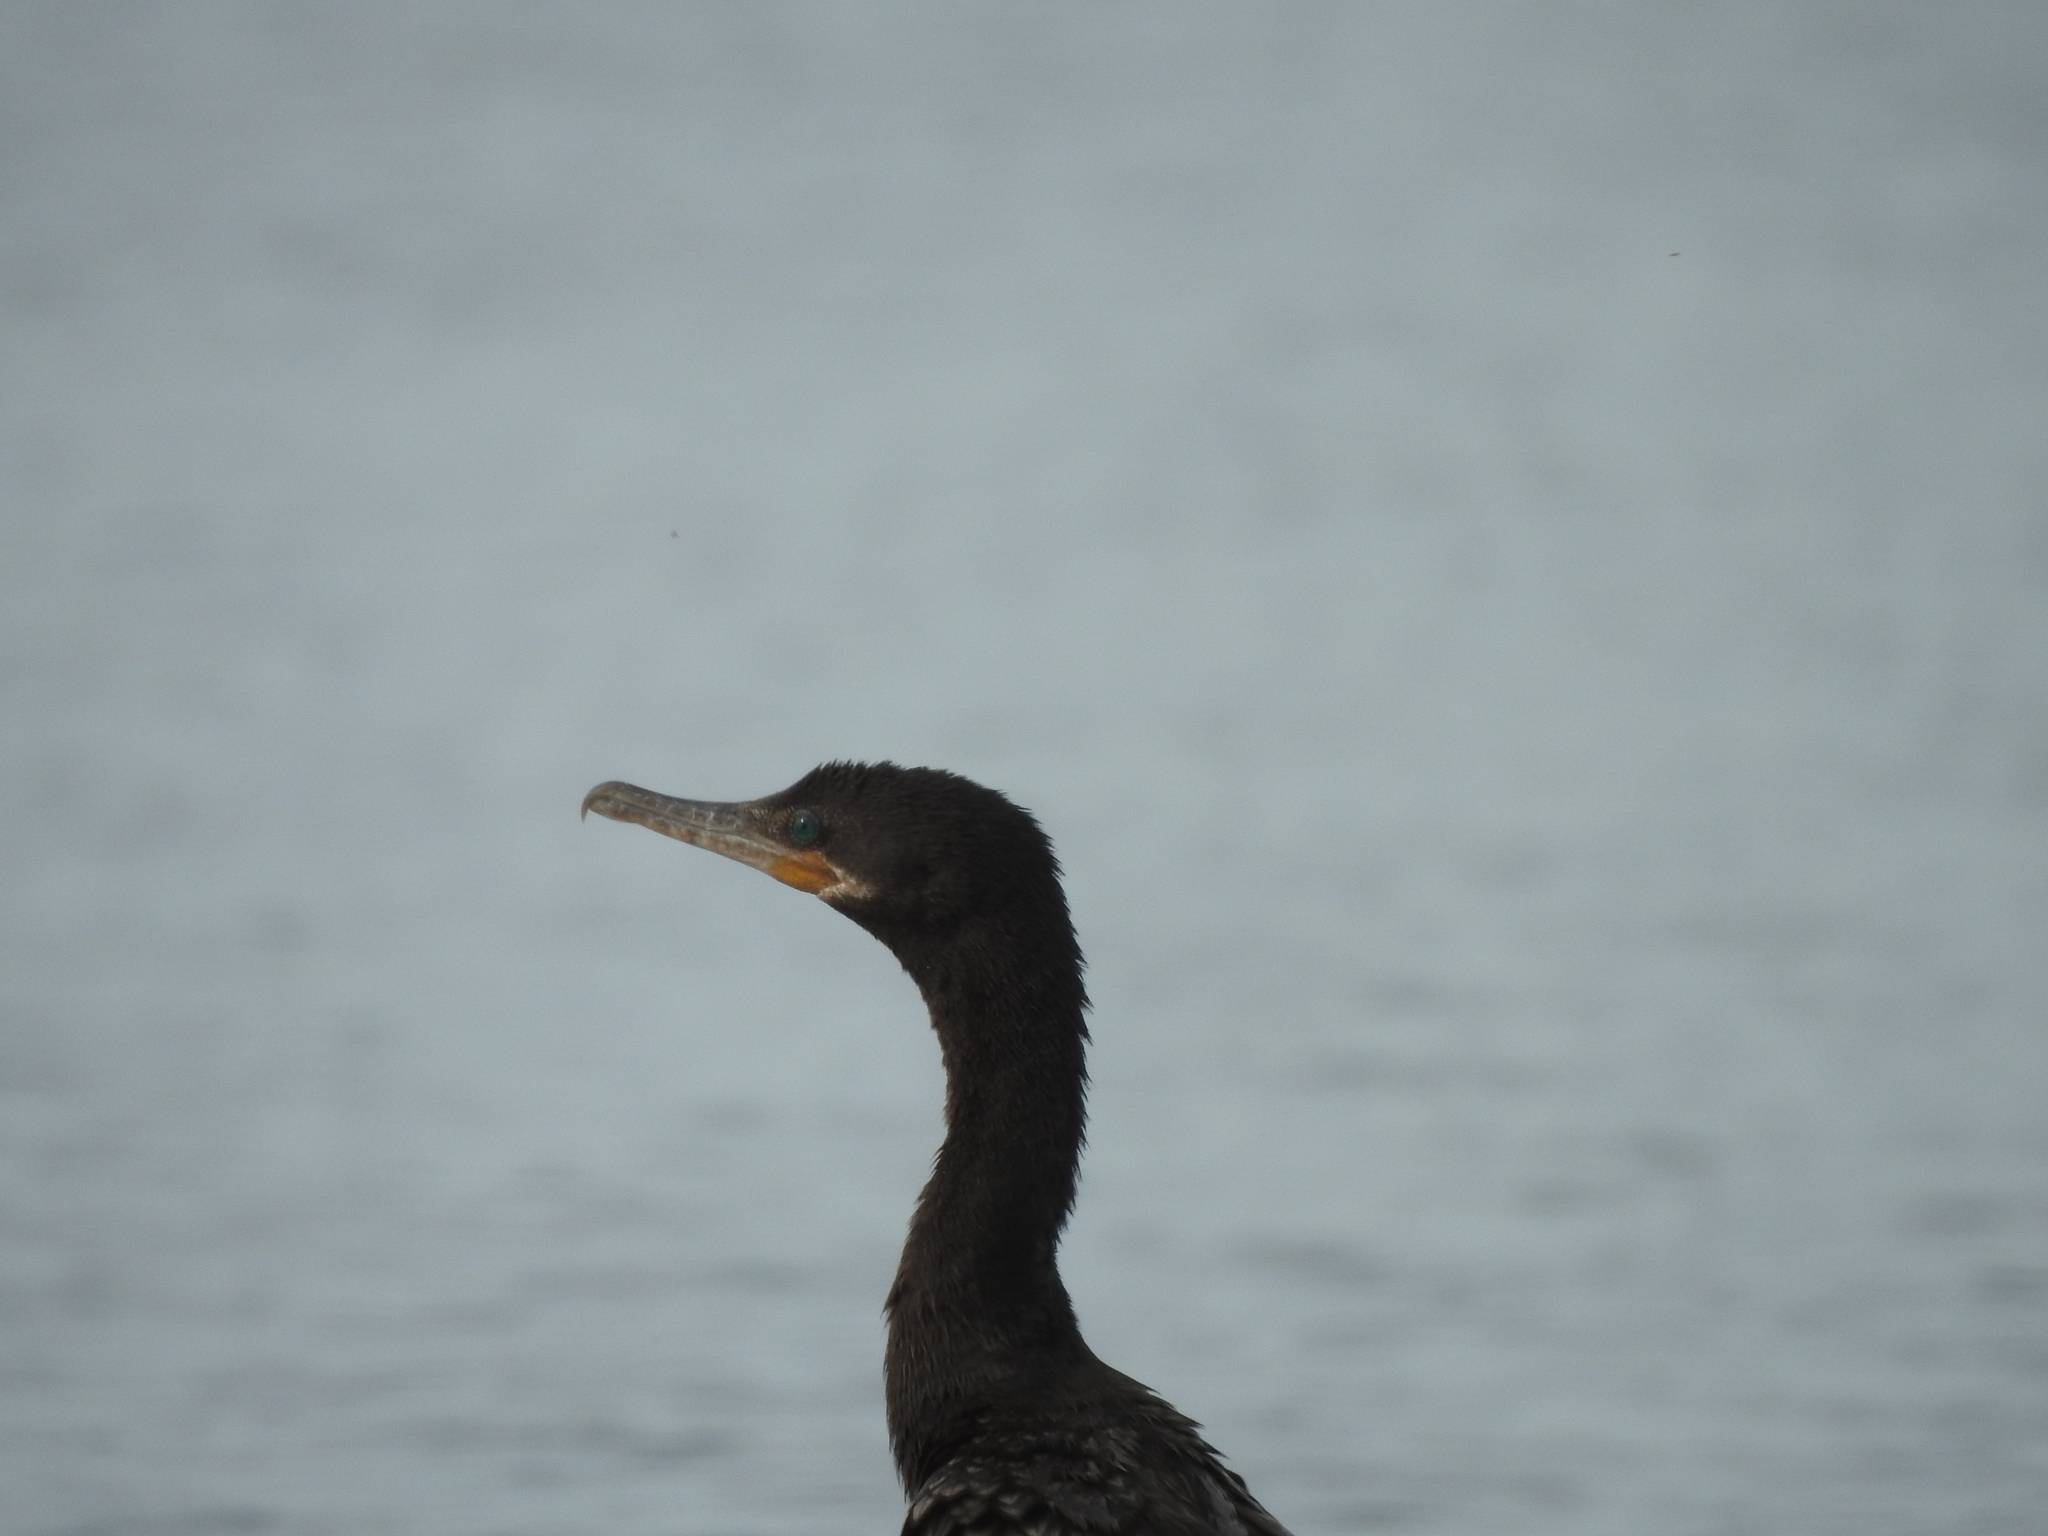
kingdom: Animalia
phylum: Chordata
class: Aves
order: Suliformes
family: Phalacrocoracidae
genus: Phalacrocorax
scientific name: Phalacrocorax brasilianus
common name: Neotropic cormorant
